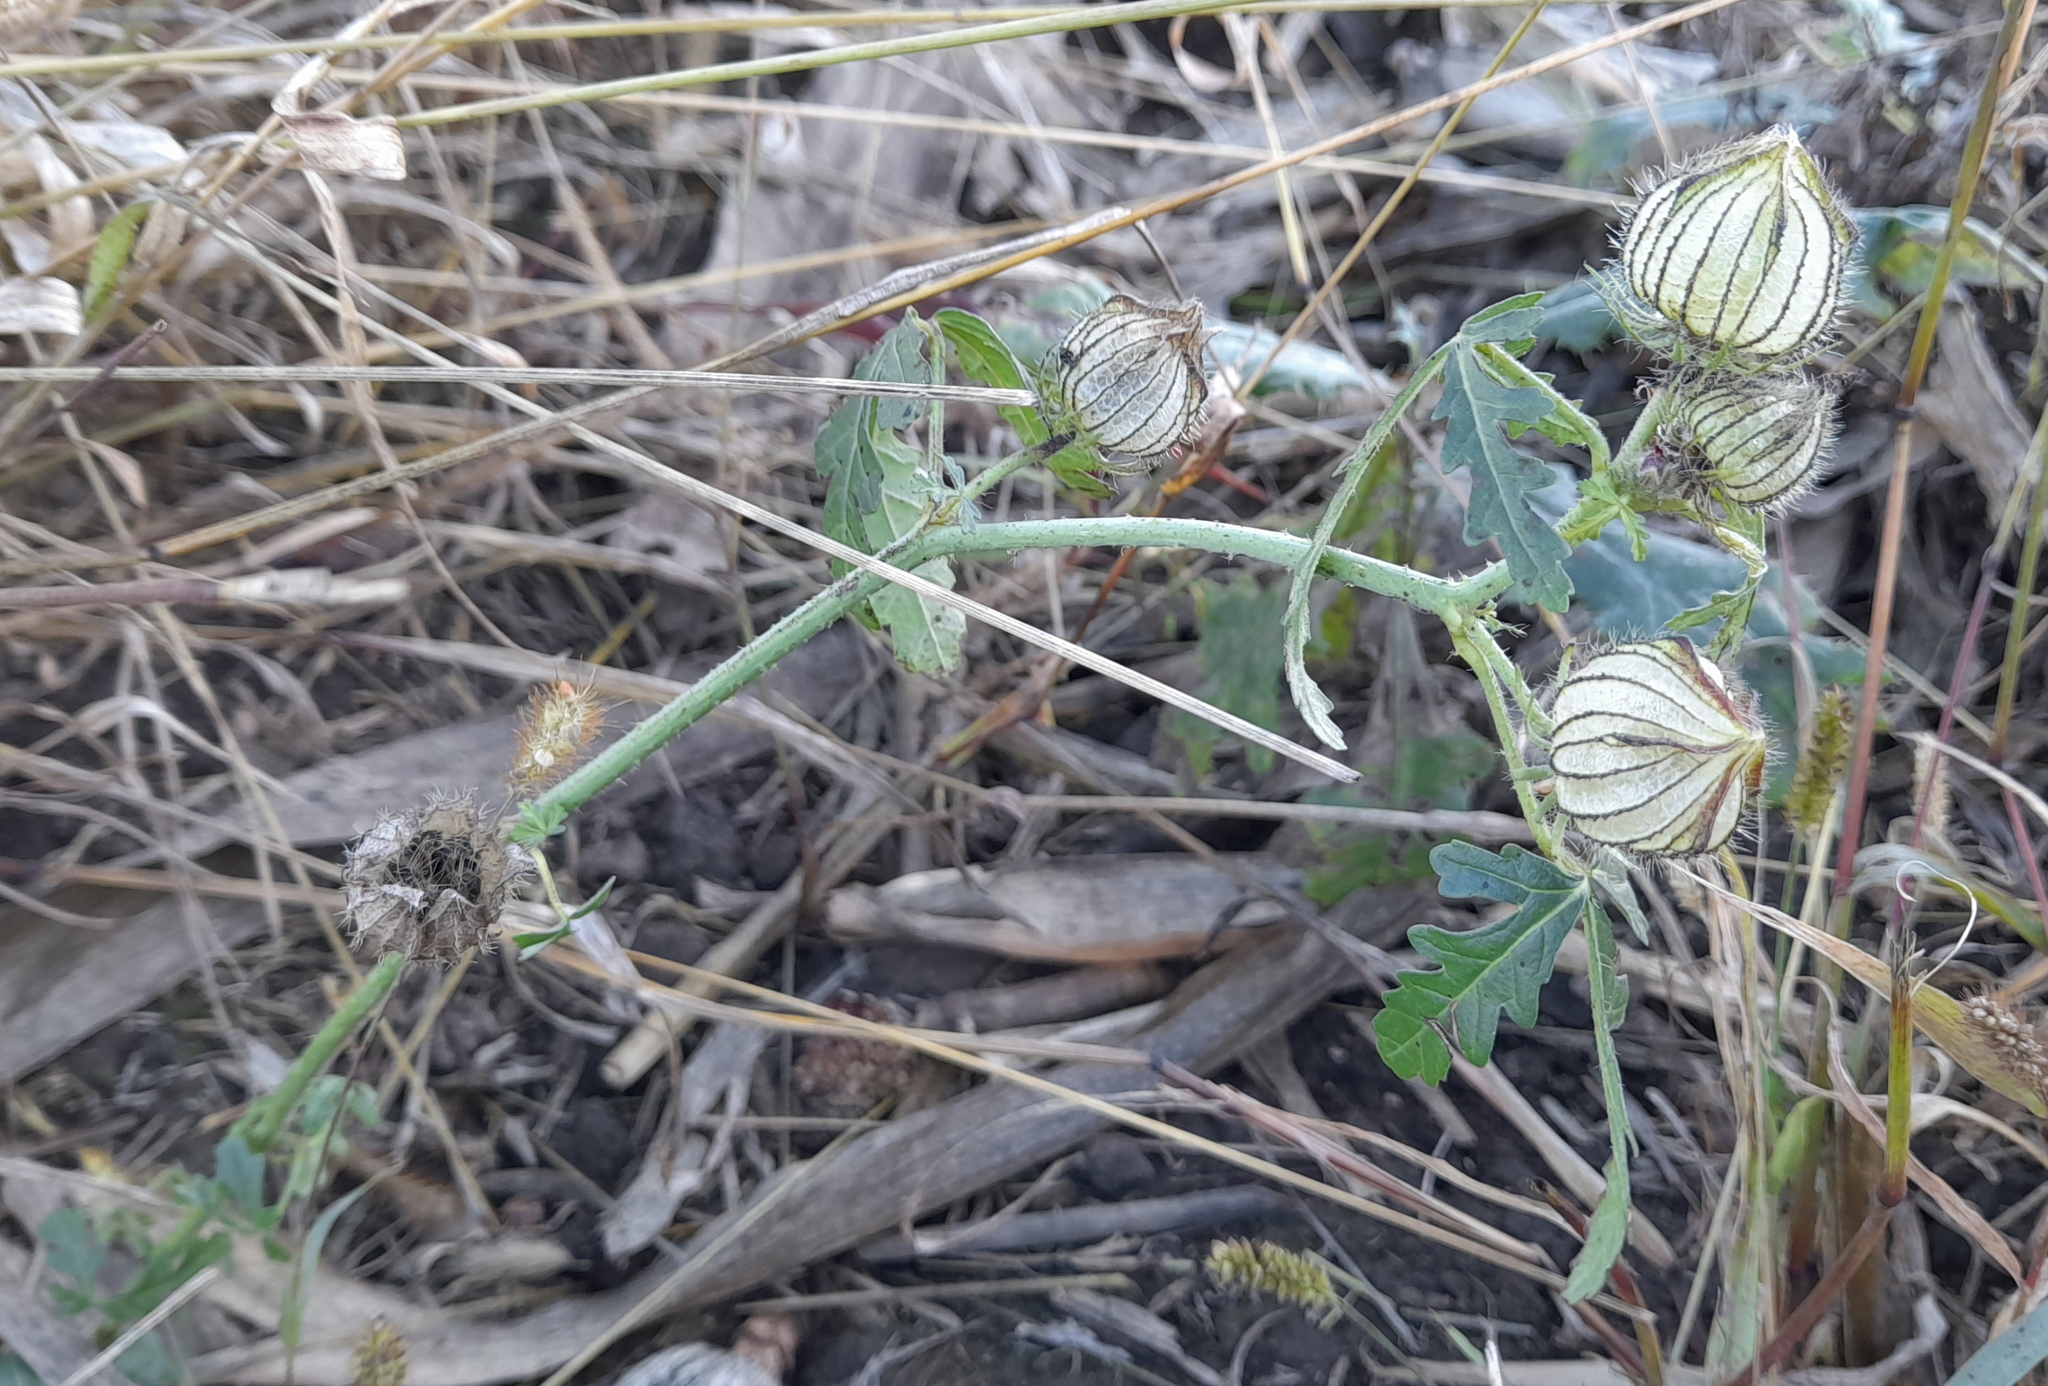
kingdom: Plantae
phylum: Tracheophyta
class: Magnoliopsida
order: Malvales
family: Malvaceae
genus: Hibiscus
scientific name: Hibiscus trionum
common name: Bladder ketmia
